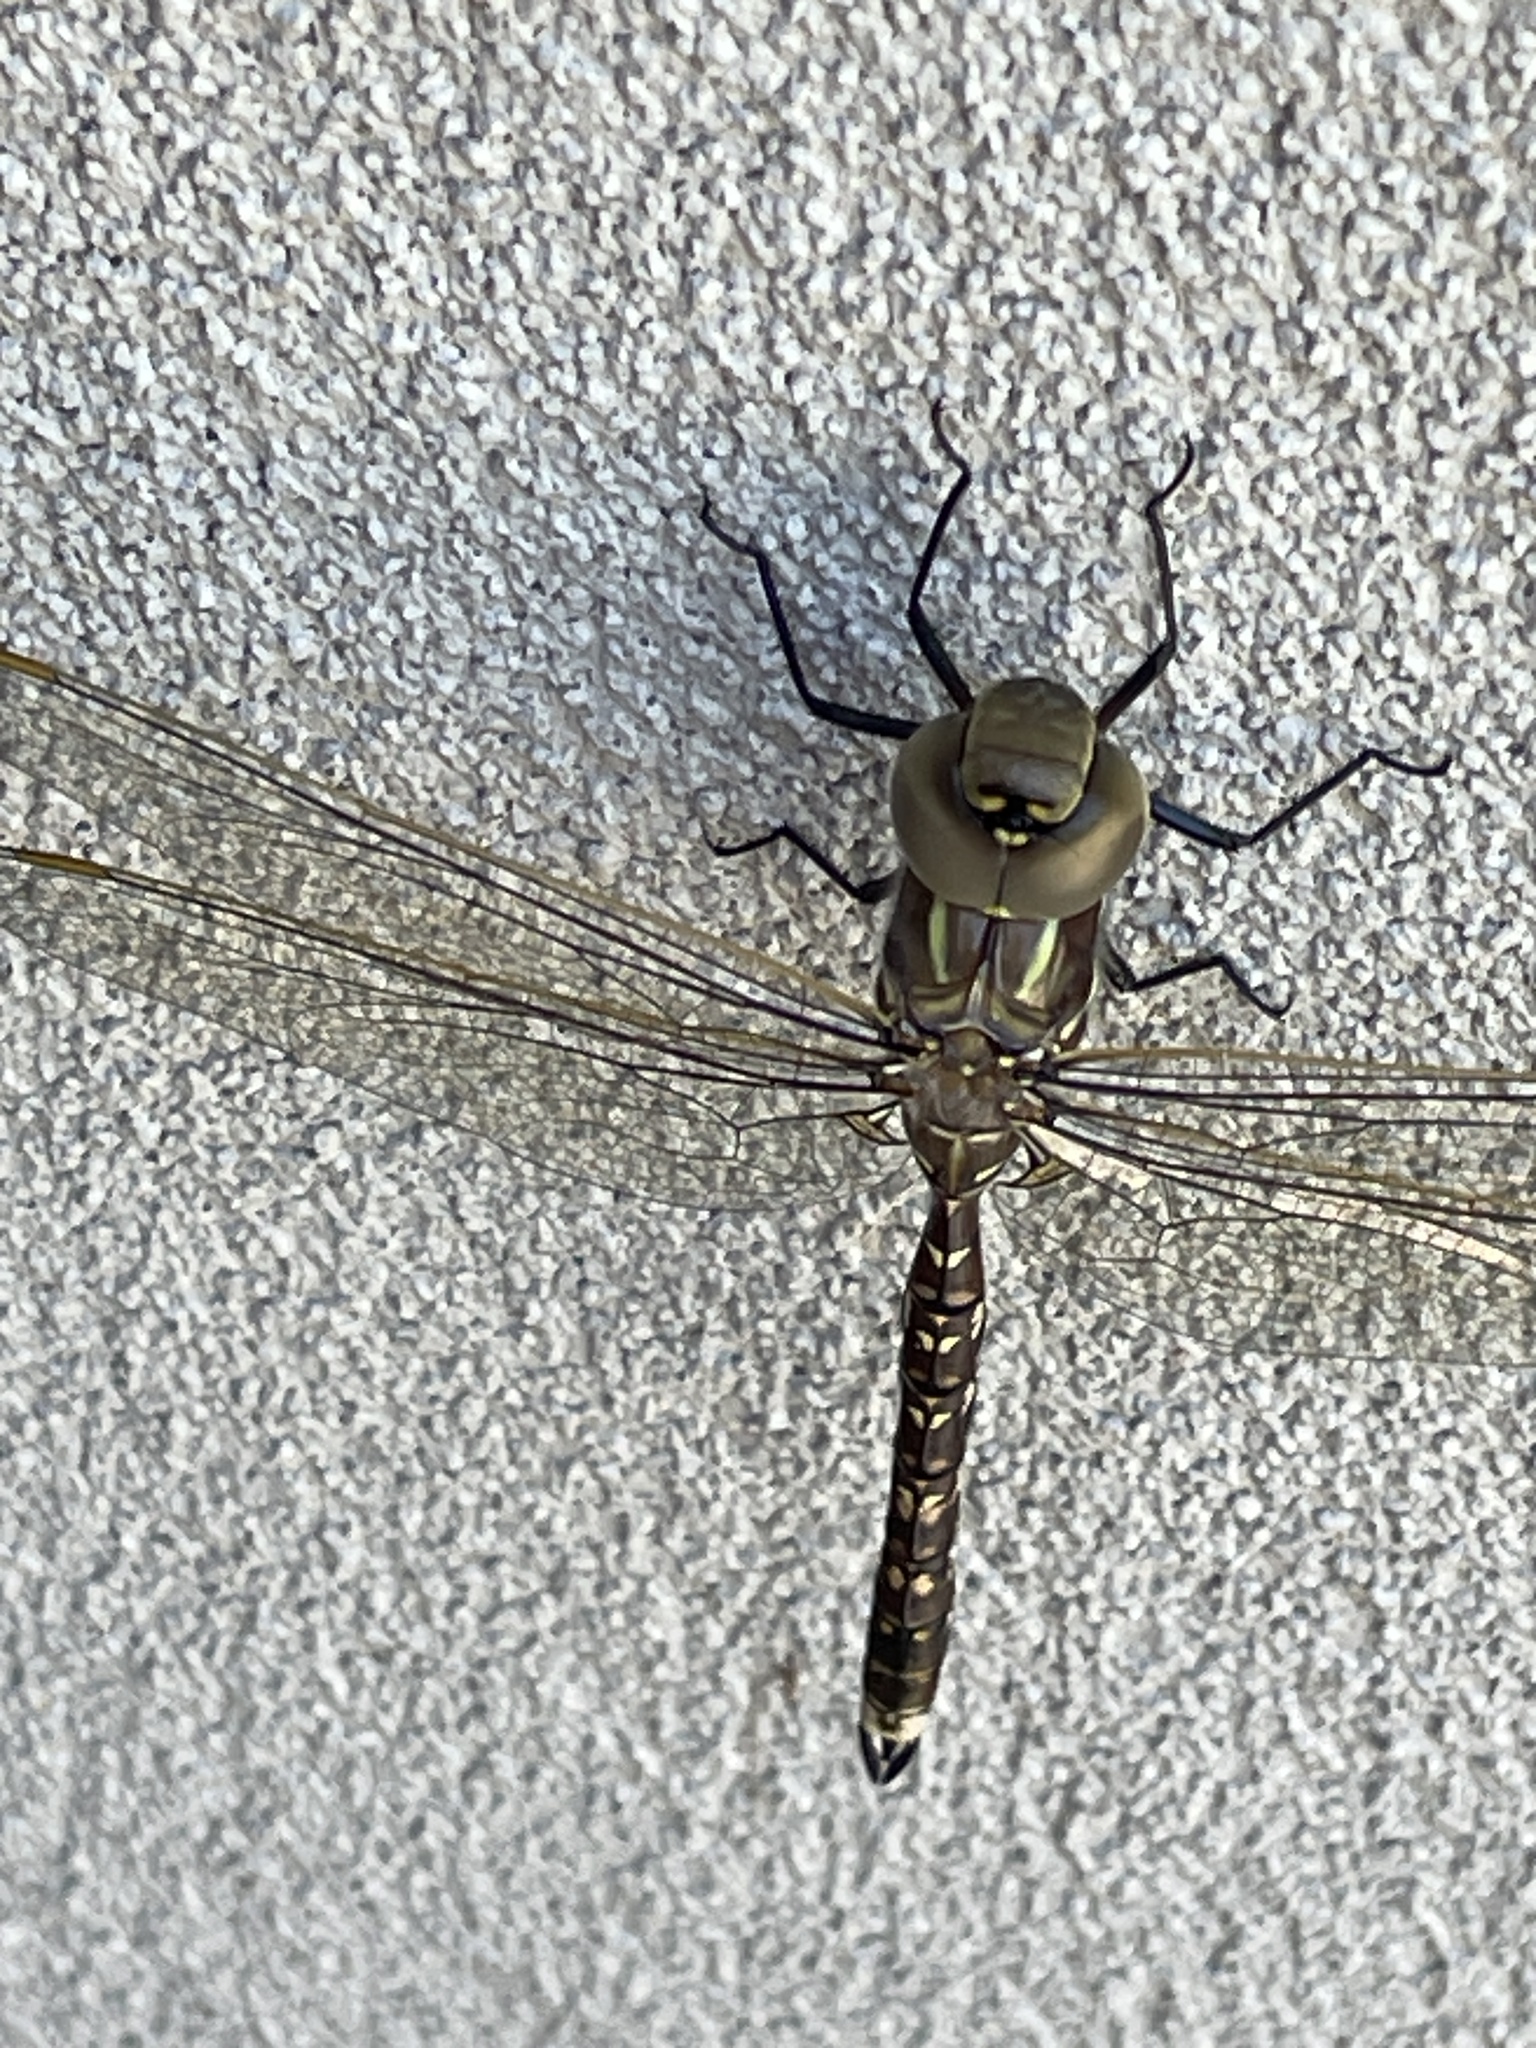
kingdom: Animalia
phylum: Arthropoda
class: Insecta
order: Odonata
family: Aeshnidae
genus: Aeshna
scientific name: Aeshna brevistyla
